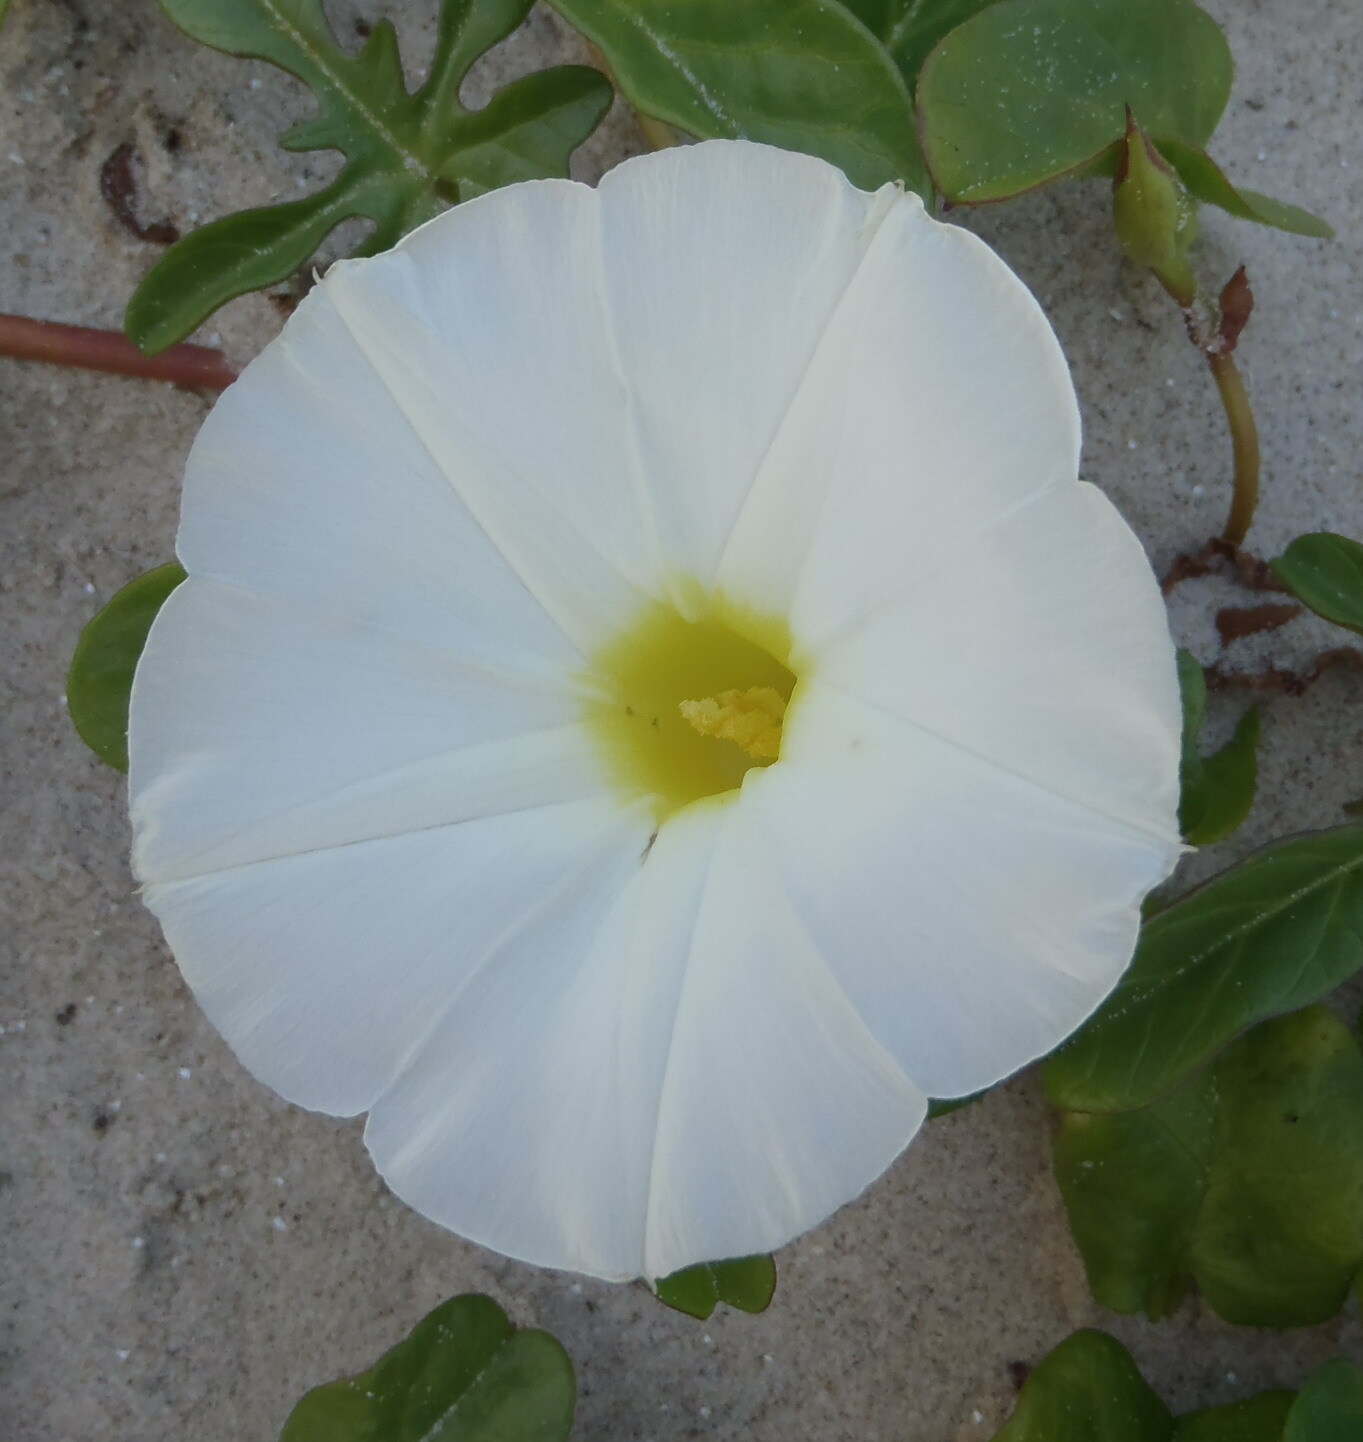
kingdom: Plantae
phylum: Tracheophyta
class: Magnoliopsida
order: Solanales
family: Convolvulaceae
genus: Ipomoea
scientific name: Ipomoea imperati
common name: Fiddle-leaf morning-glory
